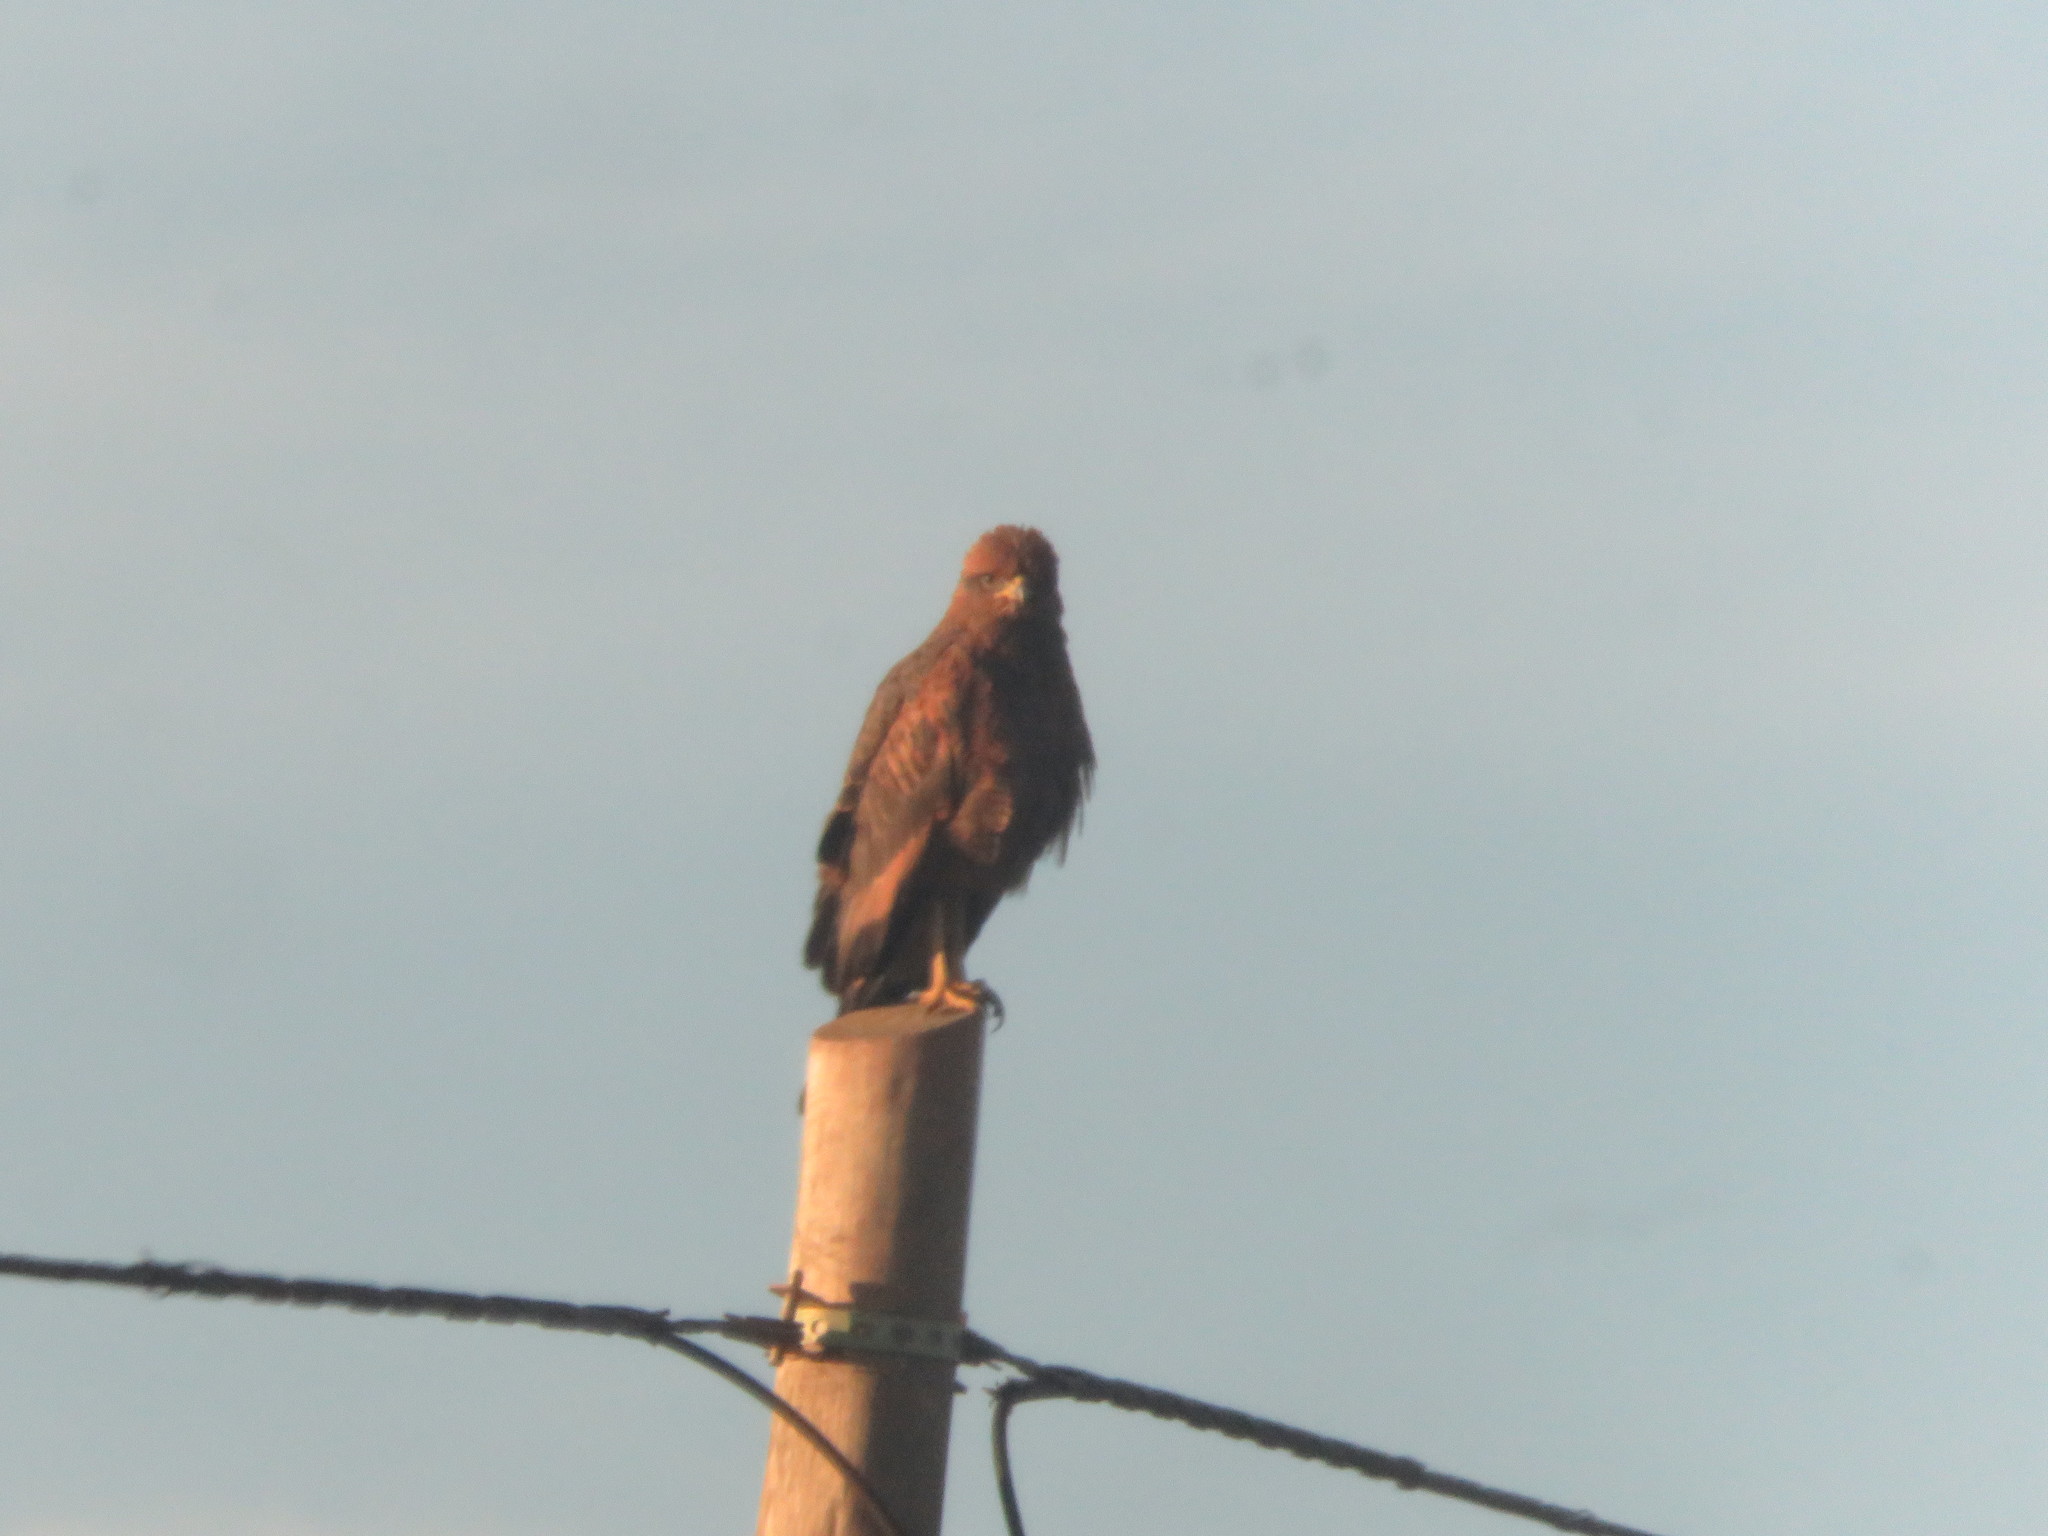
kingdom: Animalia
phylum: Chordata
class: Aves
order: Accipitriformes
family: Accipitridae
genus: Buteogallus
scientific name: Buteogallus meridionalis
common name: Savanna hawk
